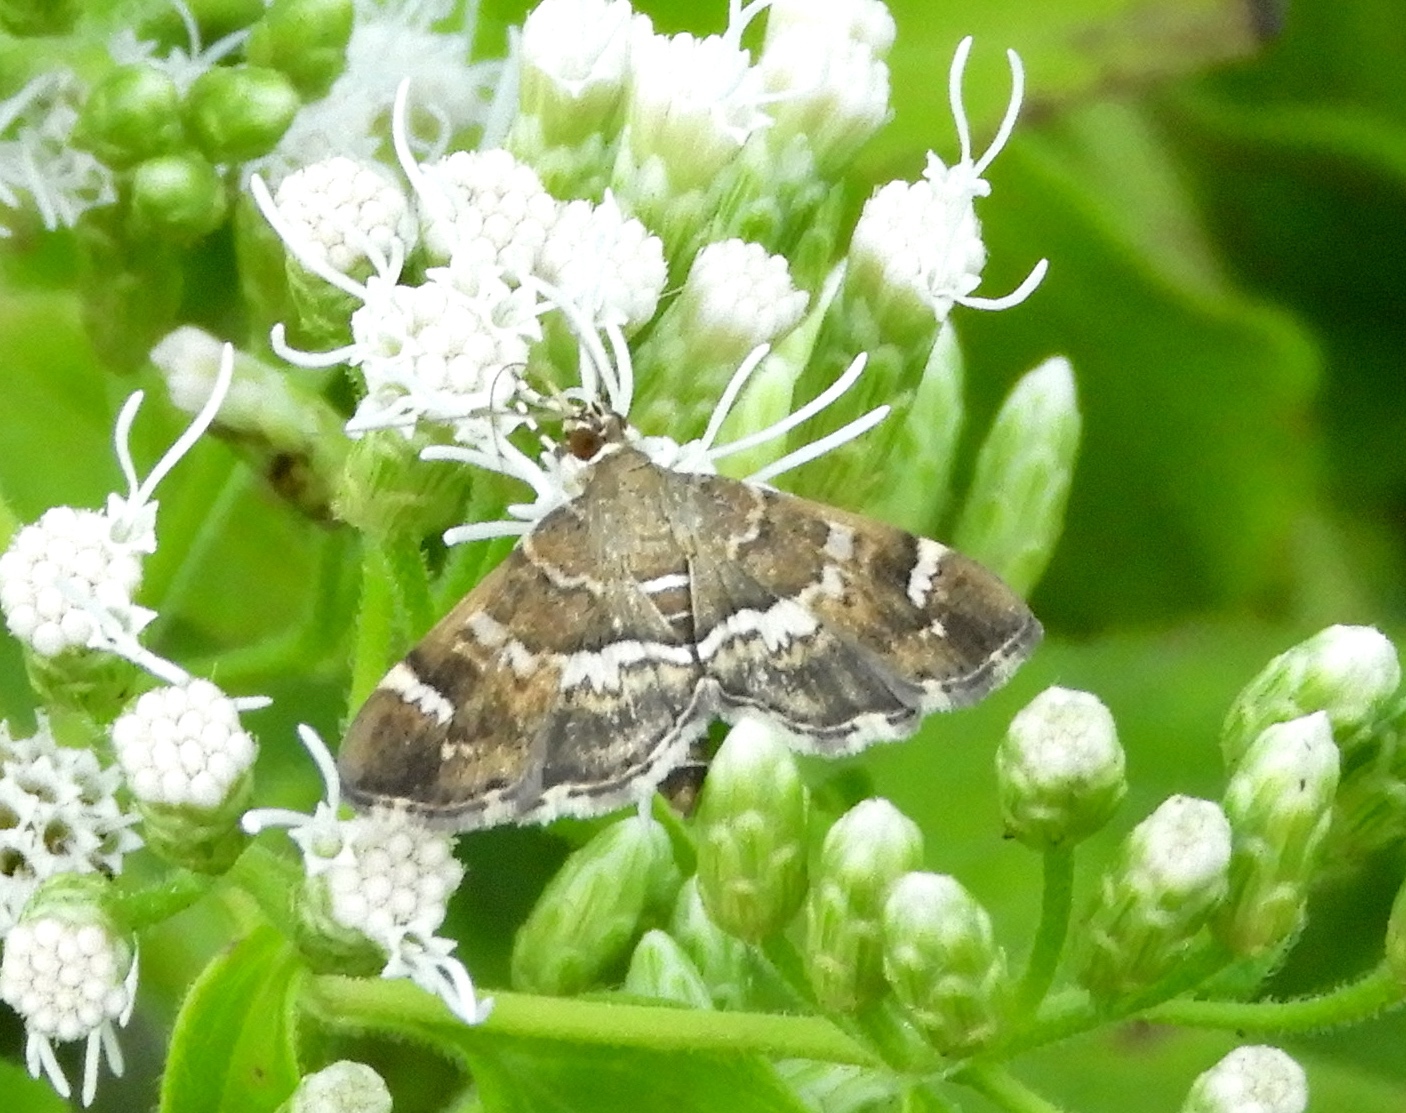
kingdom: Animalia
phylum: Arthropoda
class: Insecta
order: Lepidoptera
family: Crambidae
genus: Hymenia
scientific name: Hymenia perspectalis
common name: Spotted beet webworm
